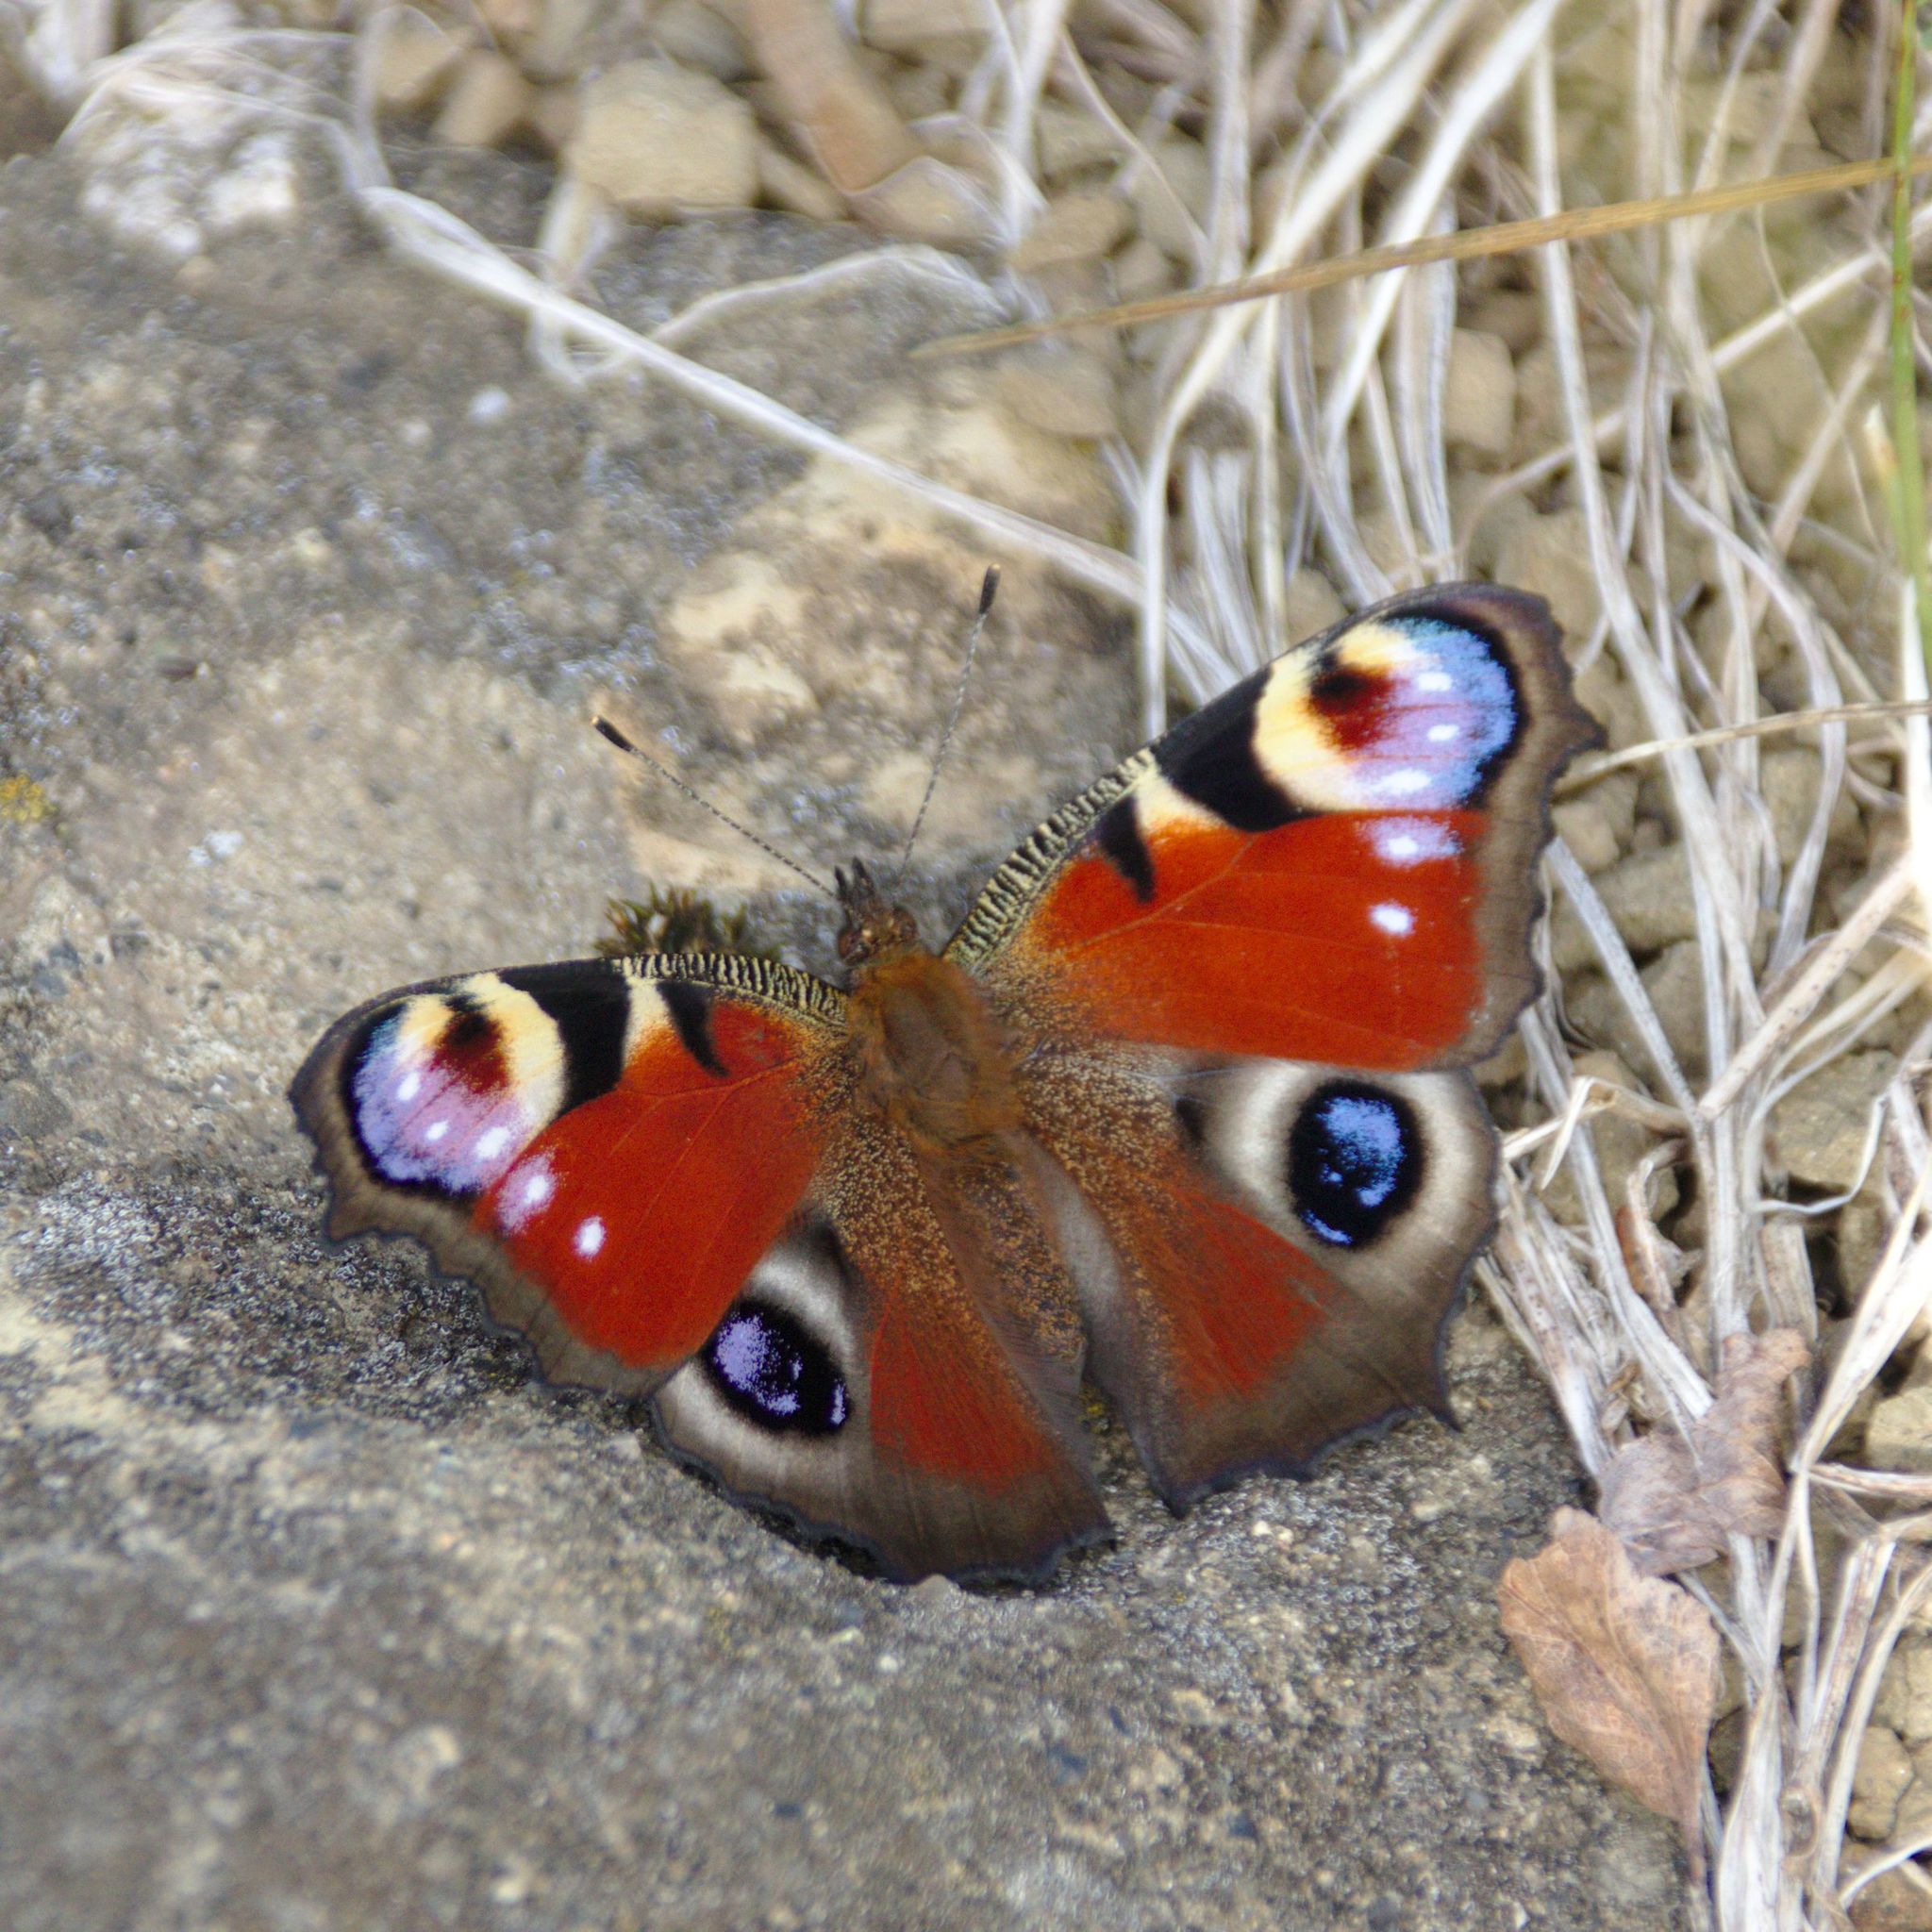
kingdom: Animalia
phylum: Arthropoda
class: Insecta
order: Lepidoptera
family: Nymphalidae
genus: Aglais
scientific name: Aglais io
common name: Peacock
